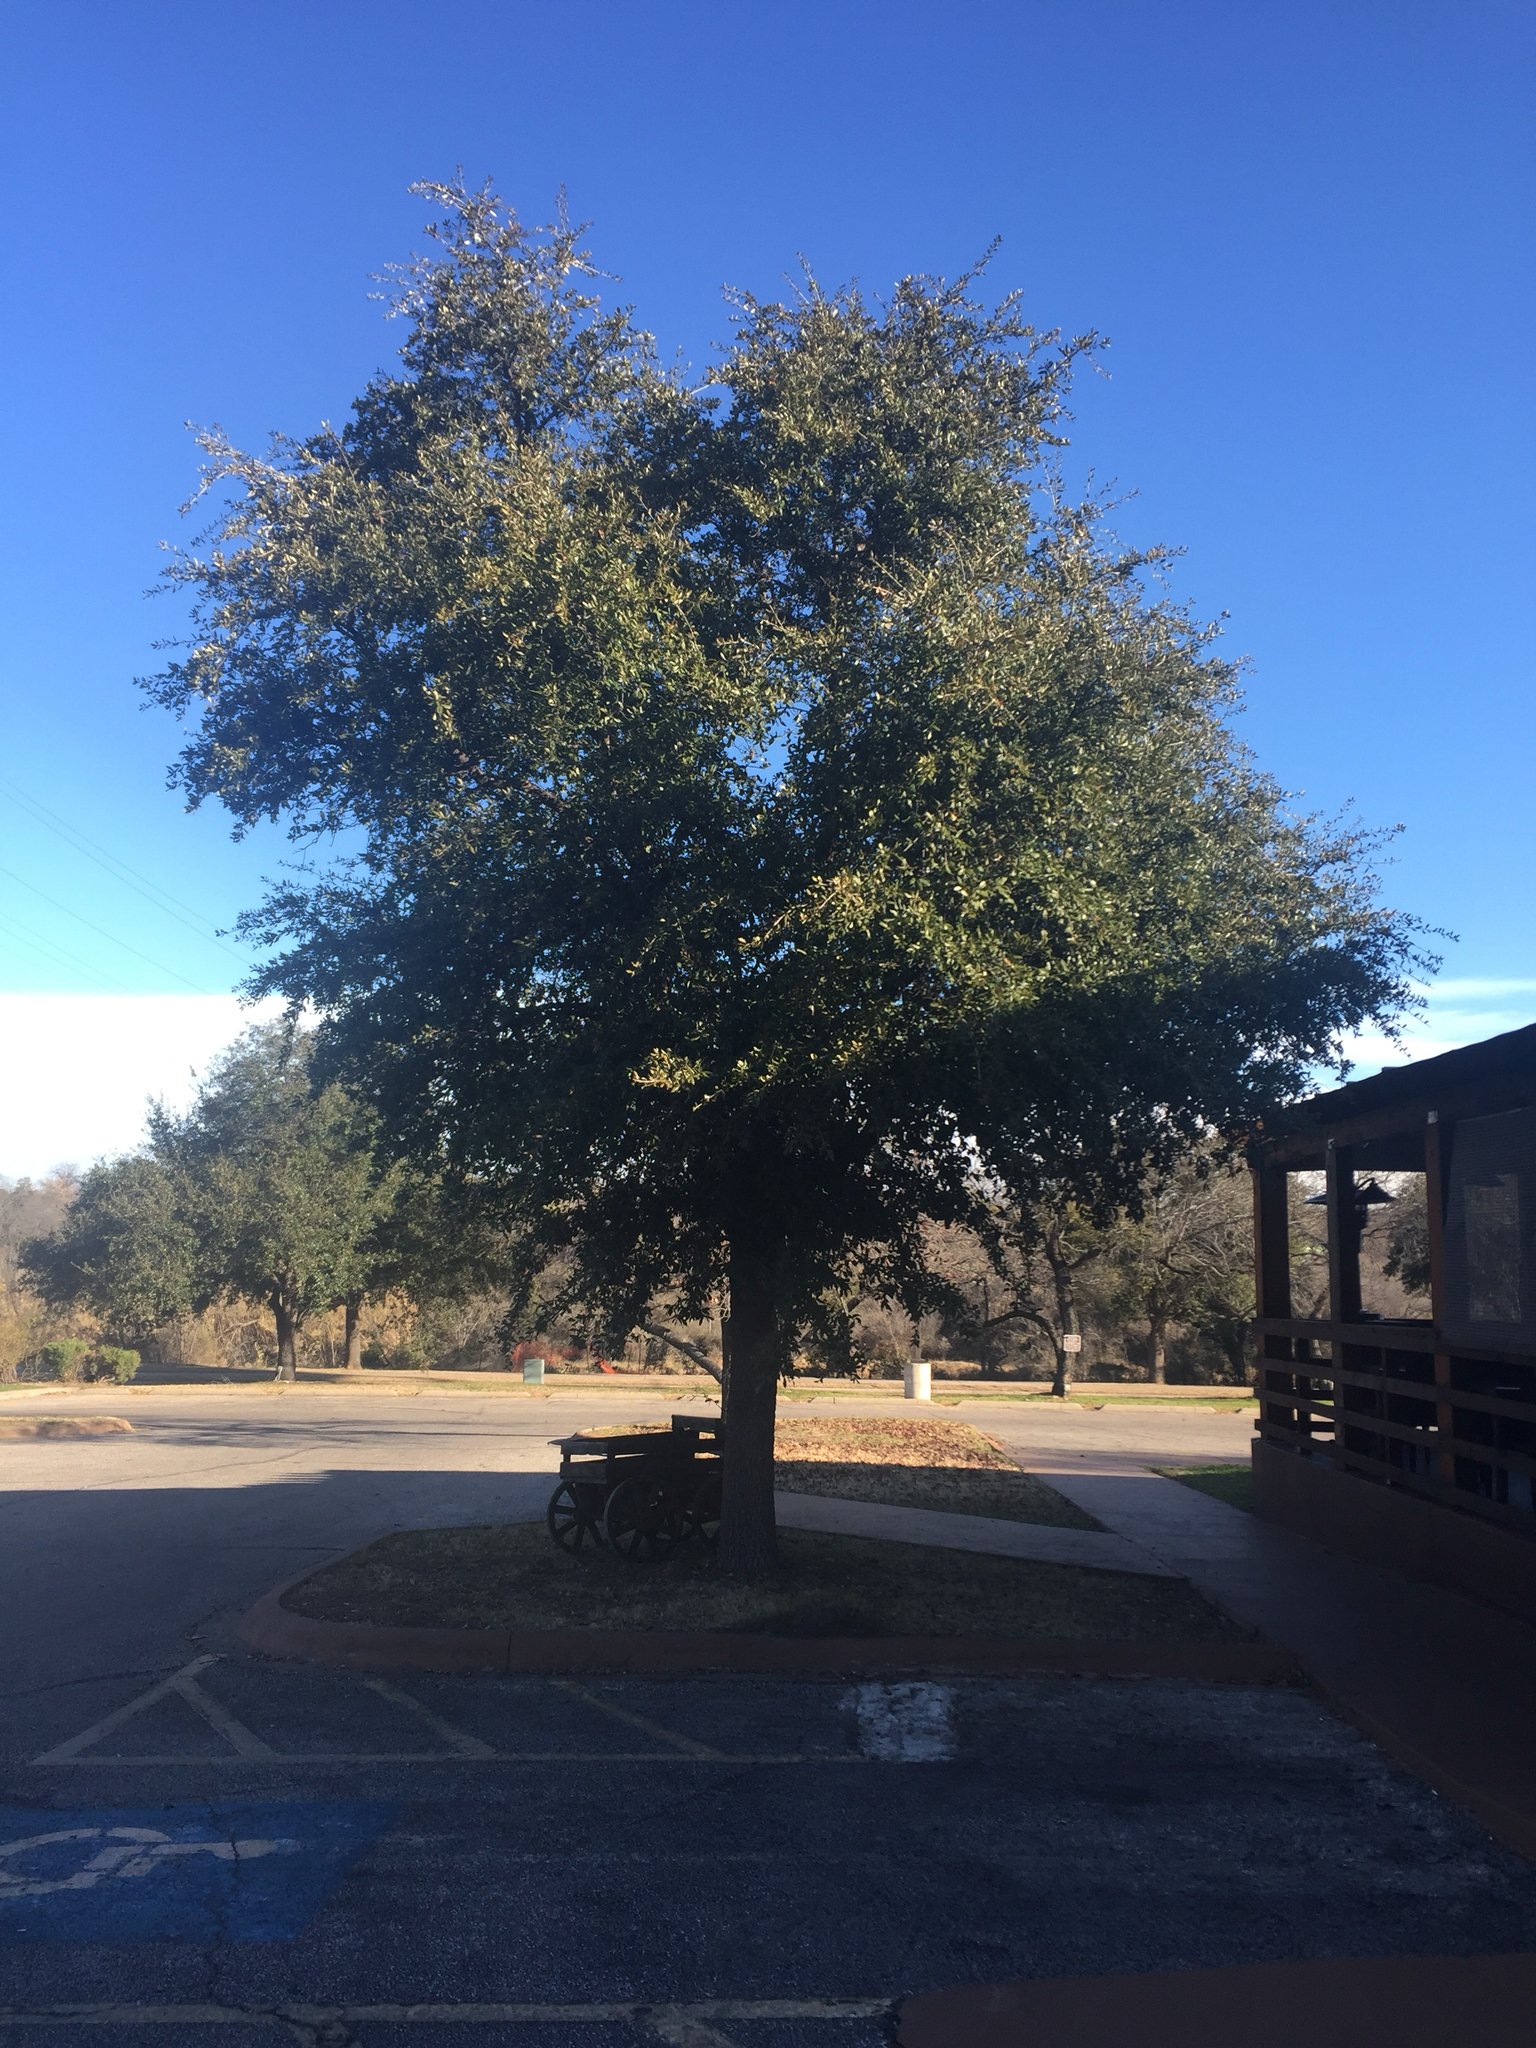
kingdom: Plantae
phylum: Tracheophyta
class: Magnoliopsida
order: Fagales
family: Fagaceae
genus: Quercus
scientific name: Quercus fusiformis
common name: Texas live oak
